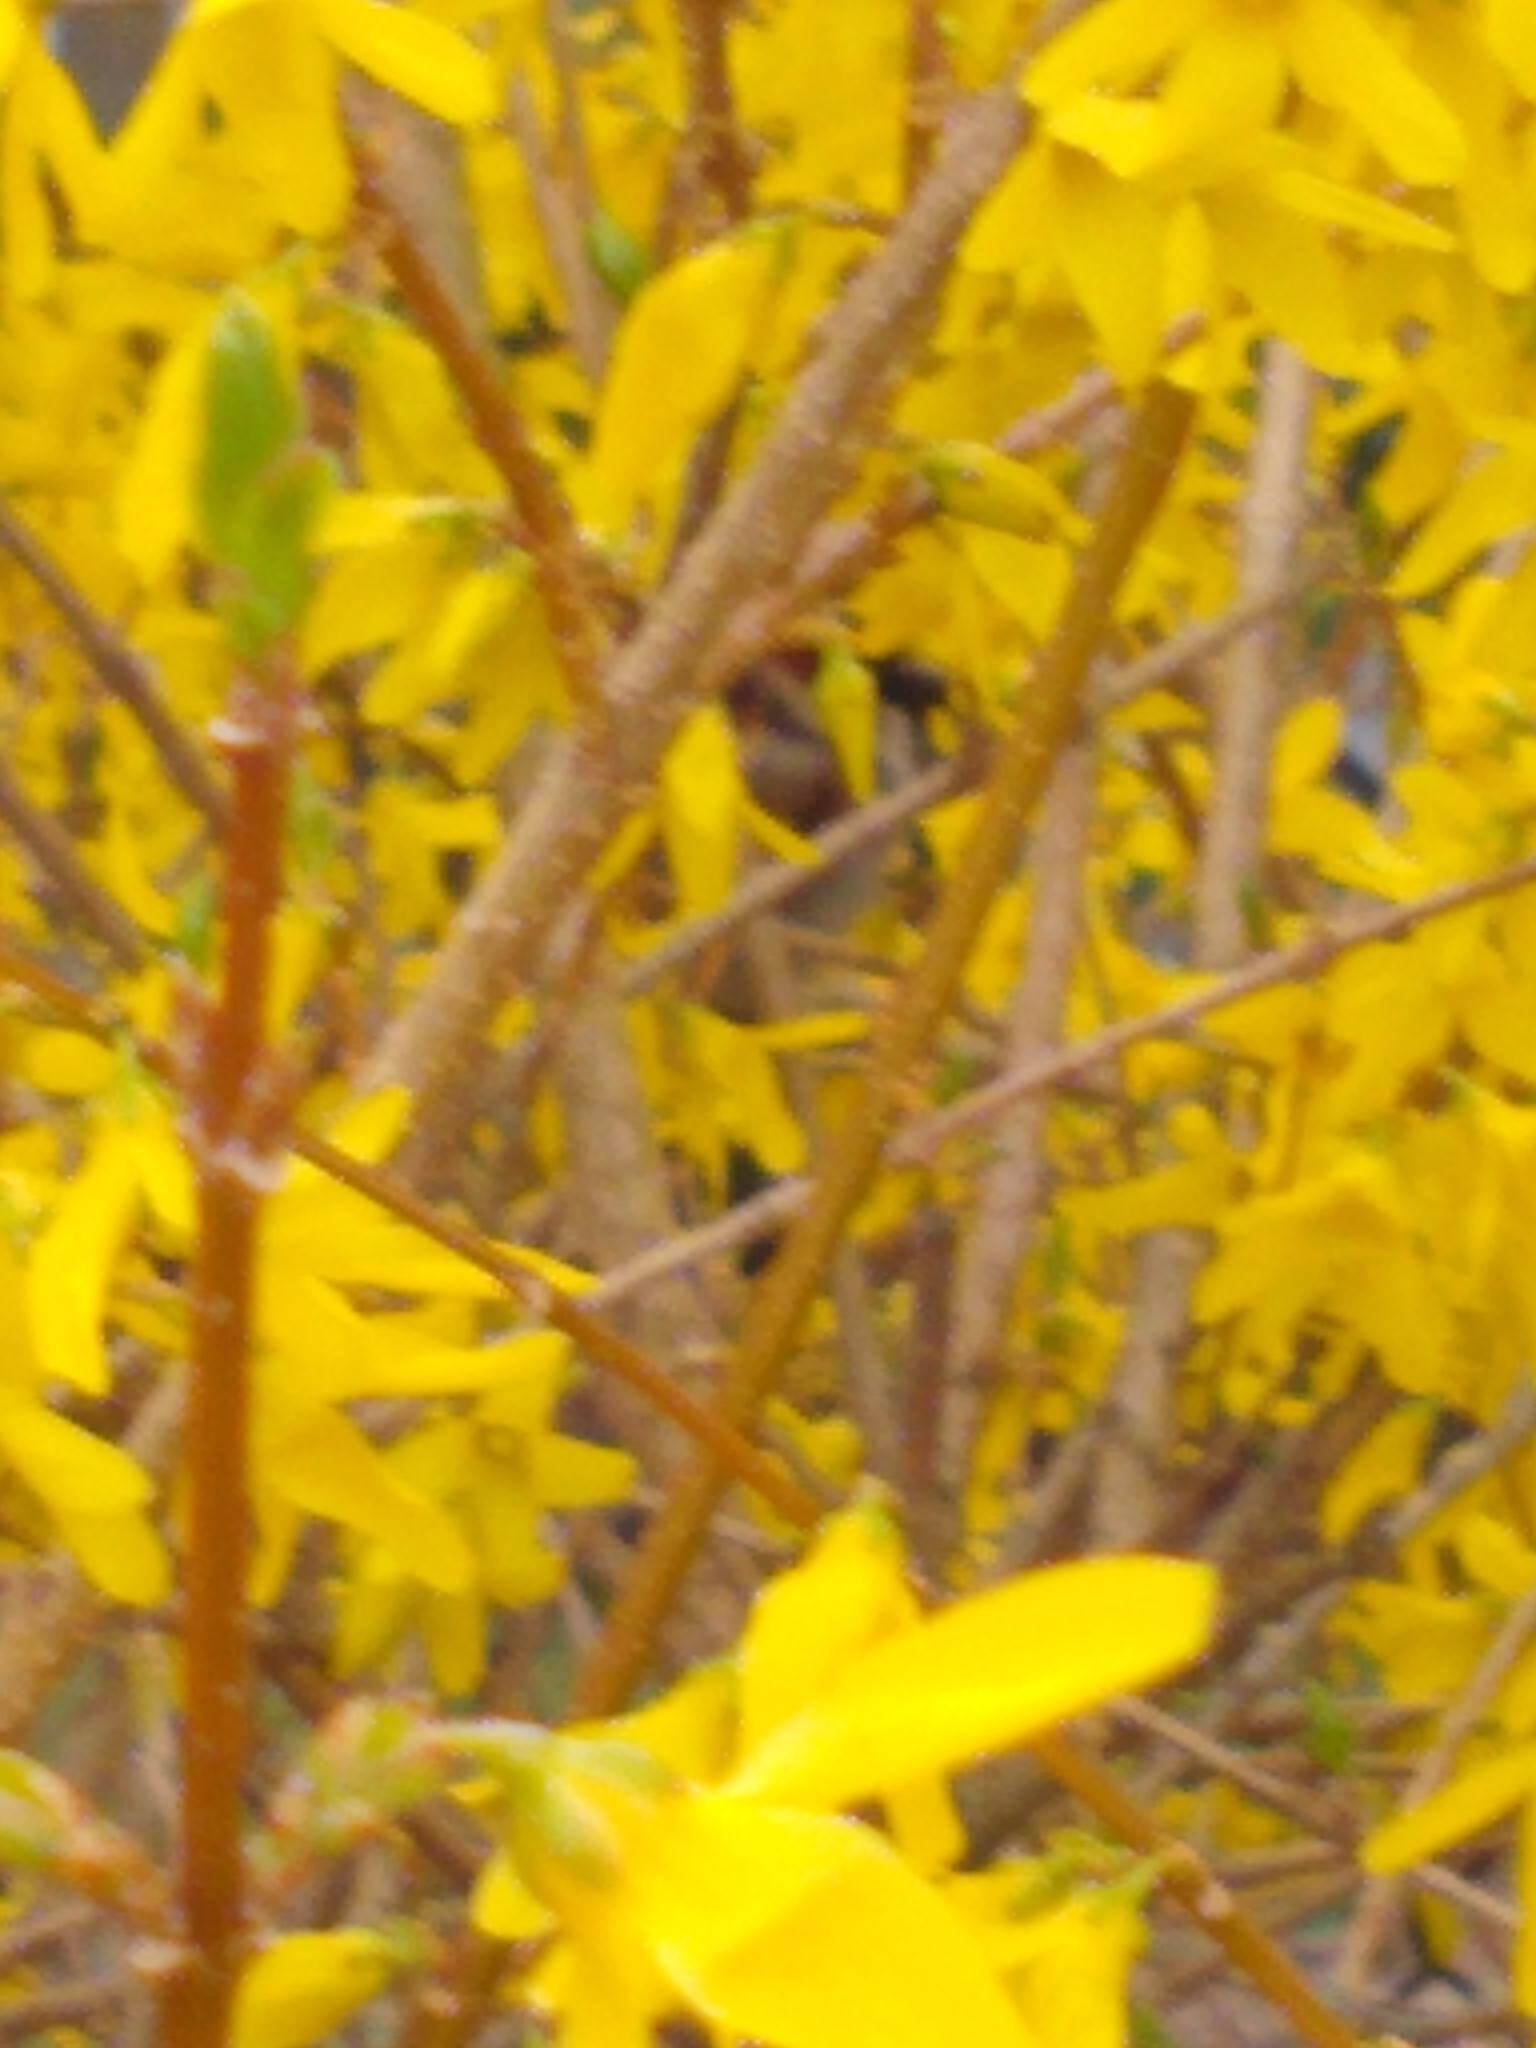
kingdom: Animalia
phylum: Chordata
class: Aves
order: Passeriformes
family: Passeridae
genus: Passer
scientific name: Passer domesticus
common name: House sparrow
